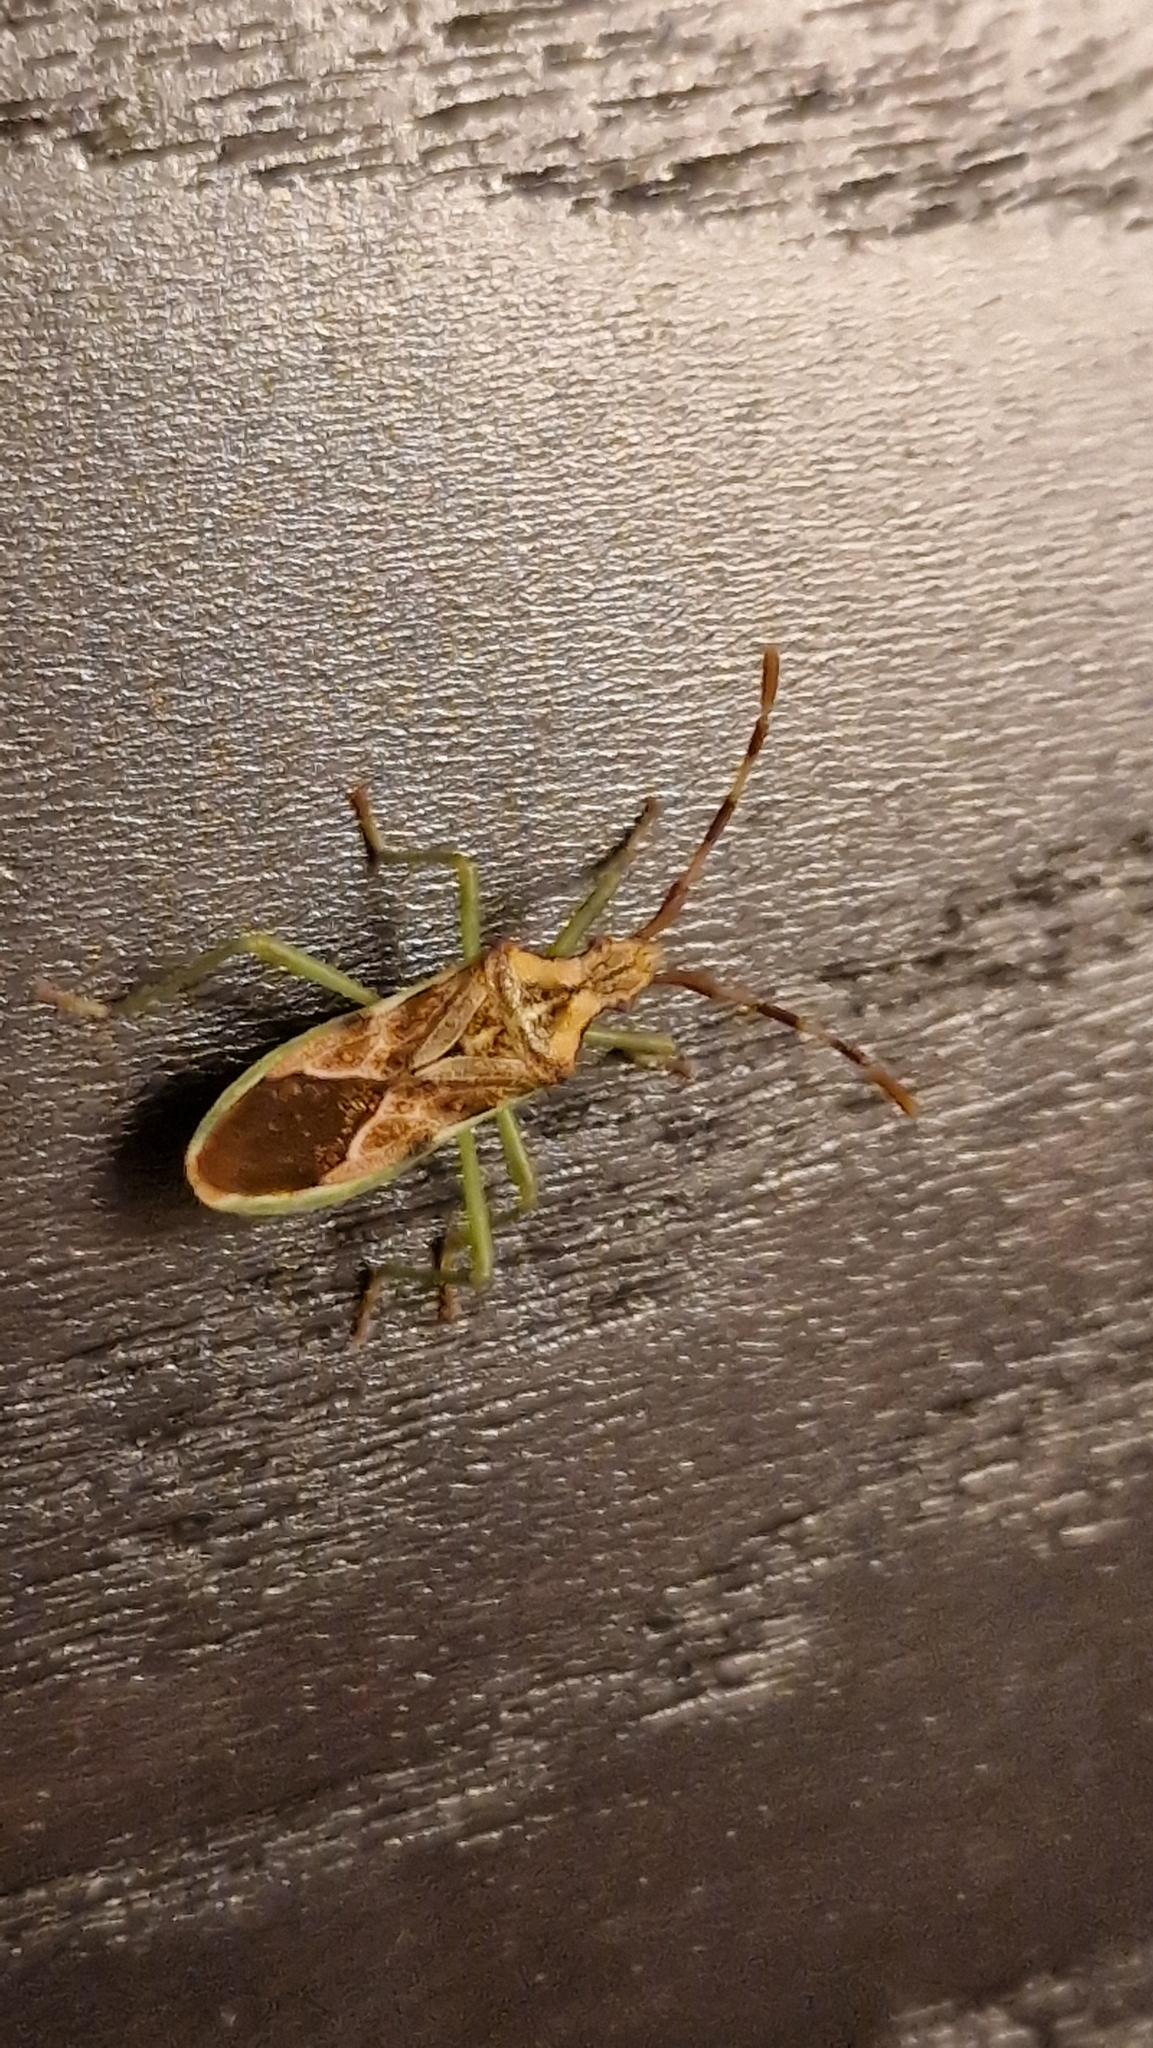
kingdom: Animalia
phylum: Arthropoda
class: Insecta
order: Hemiptera
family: Coreidae
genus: Gonocerus
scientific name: Gonocerus juniperi
